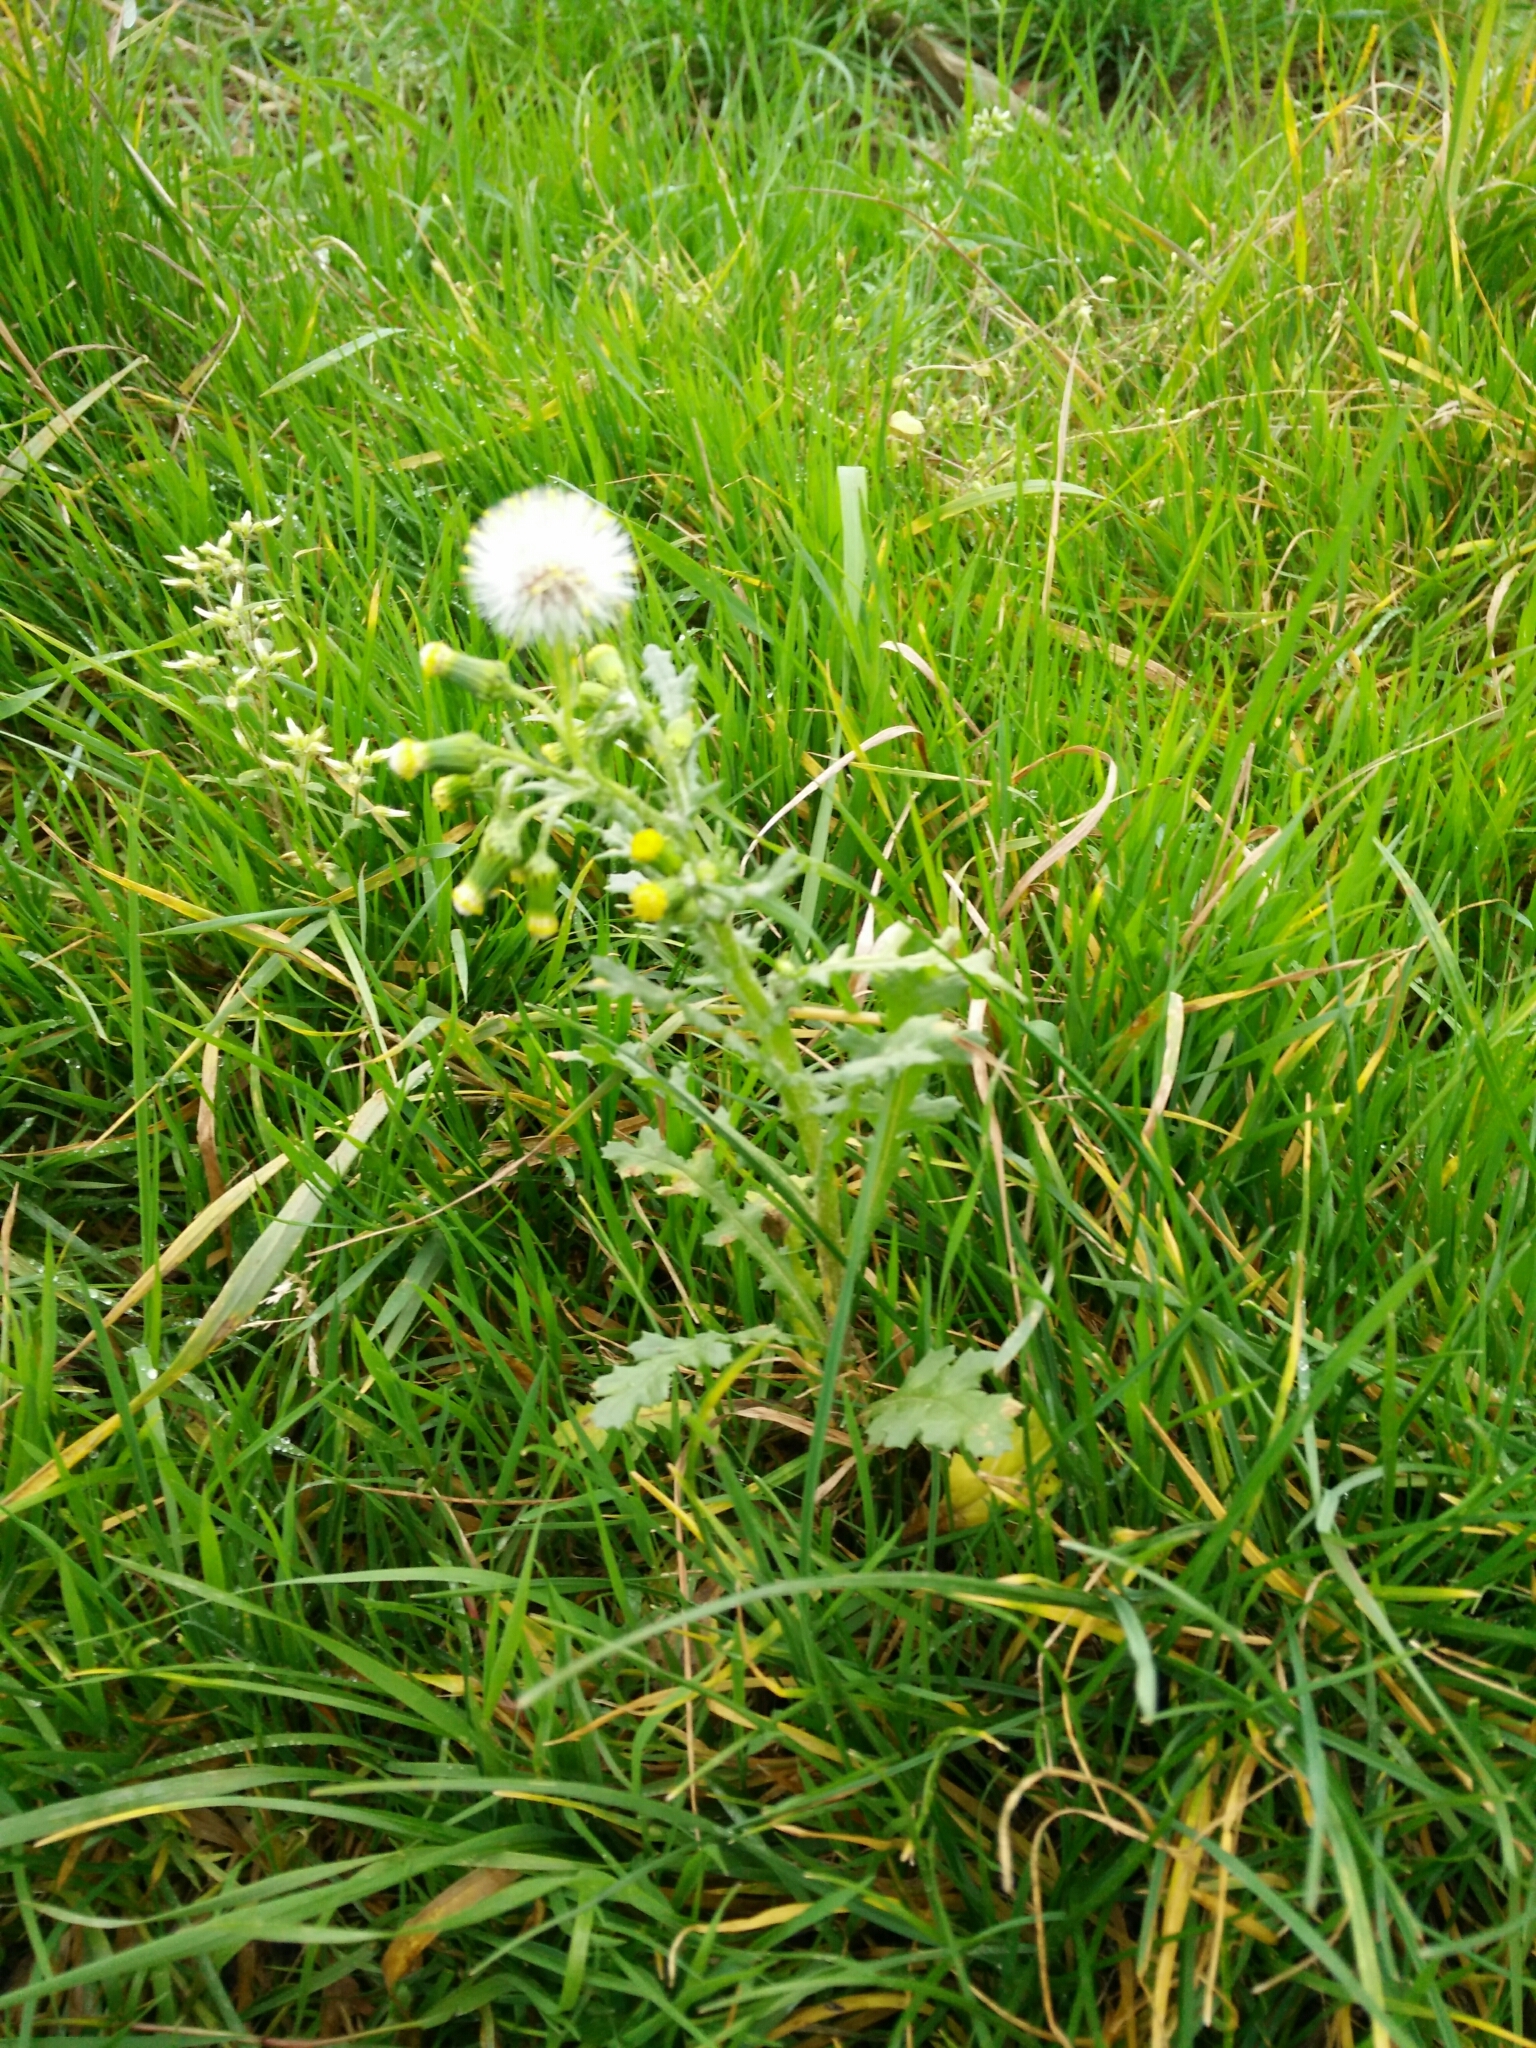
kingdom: Plantae
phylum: Tracheophyta
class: Magnoliopsida
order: Asterales
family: Asteraceae
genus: Senecio
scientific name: Senecio vulgaris
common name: Old-man-in-the-spring
